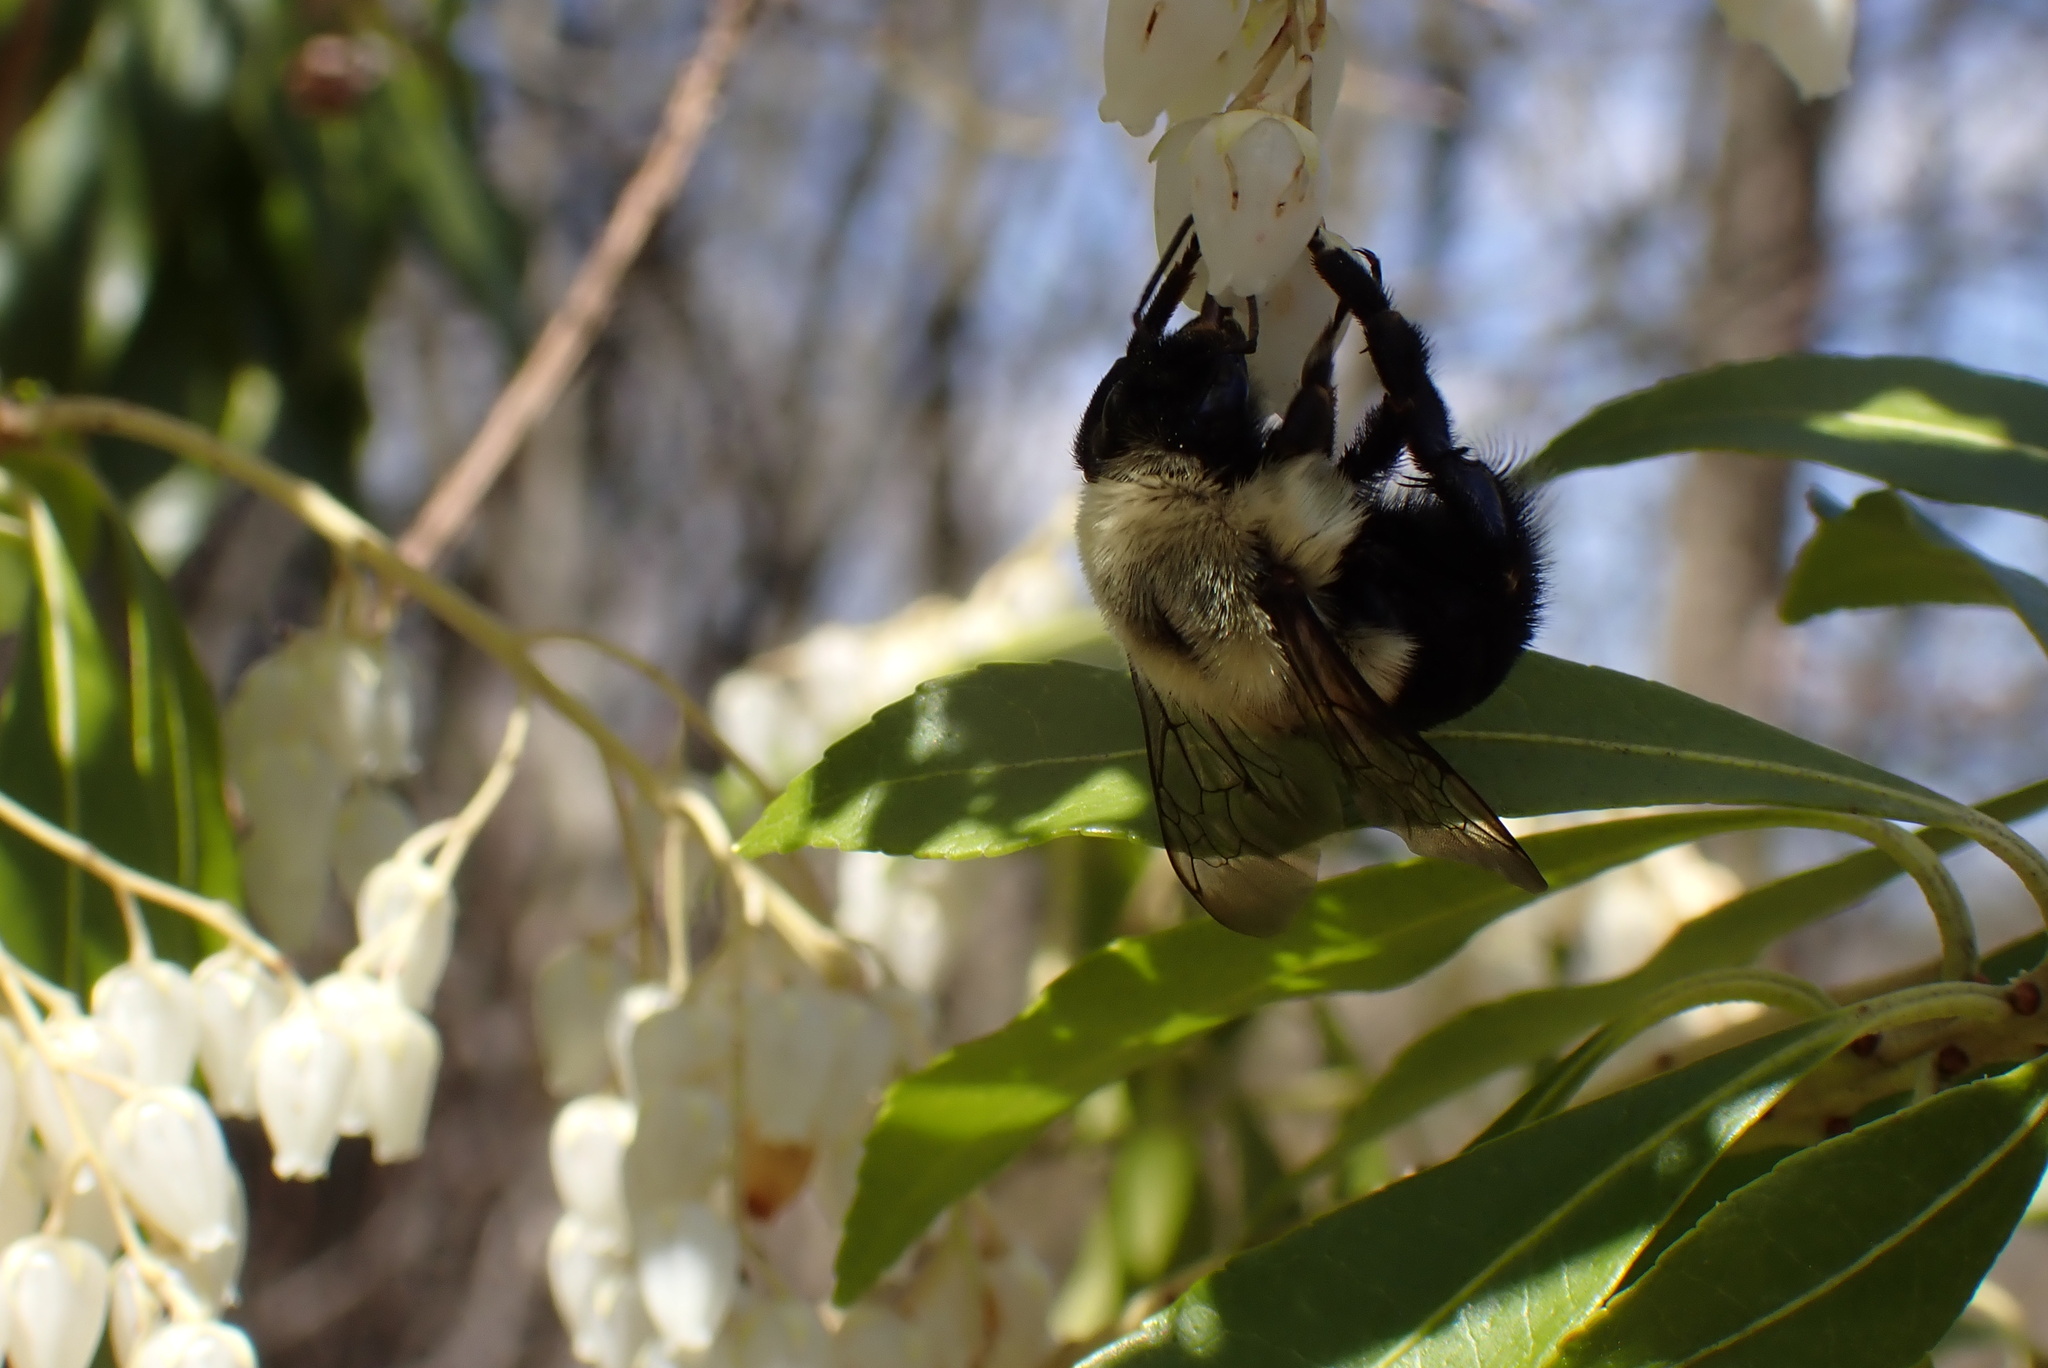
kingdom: Animalia
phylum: Arthropoda
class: Insecta
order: Hymenoptera
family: Apidae
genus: Bombus
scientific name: Bombus impatiens
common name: Common eastern bumble bee
